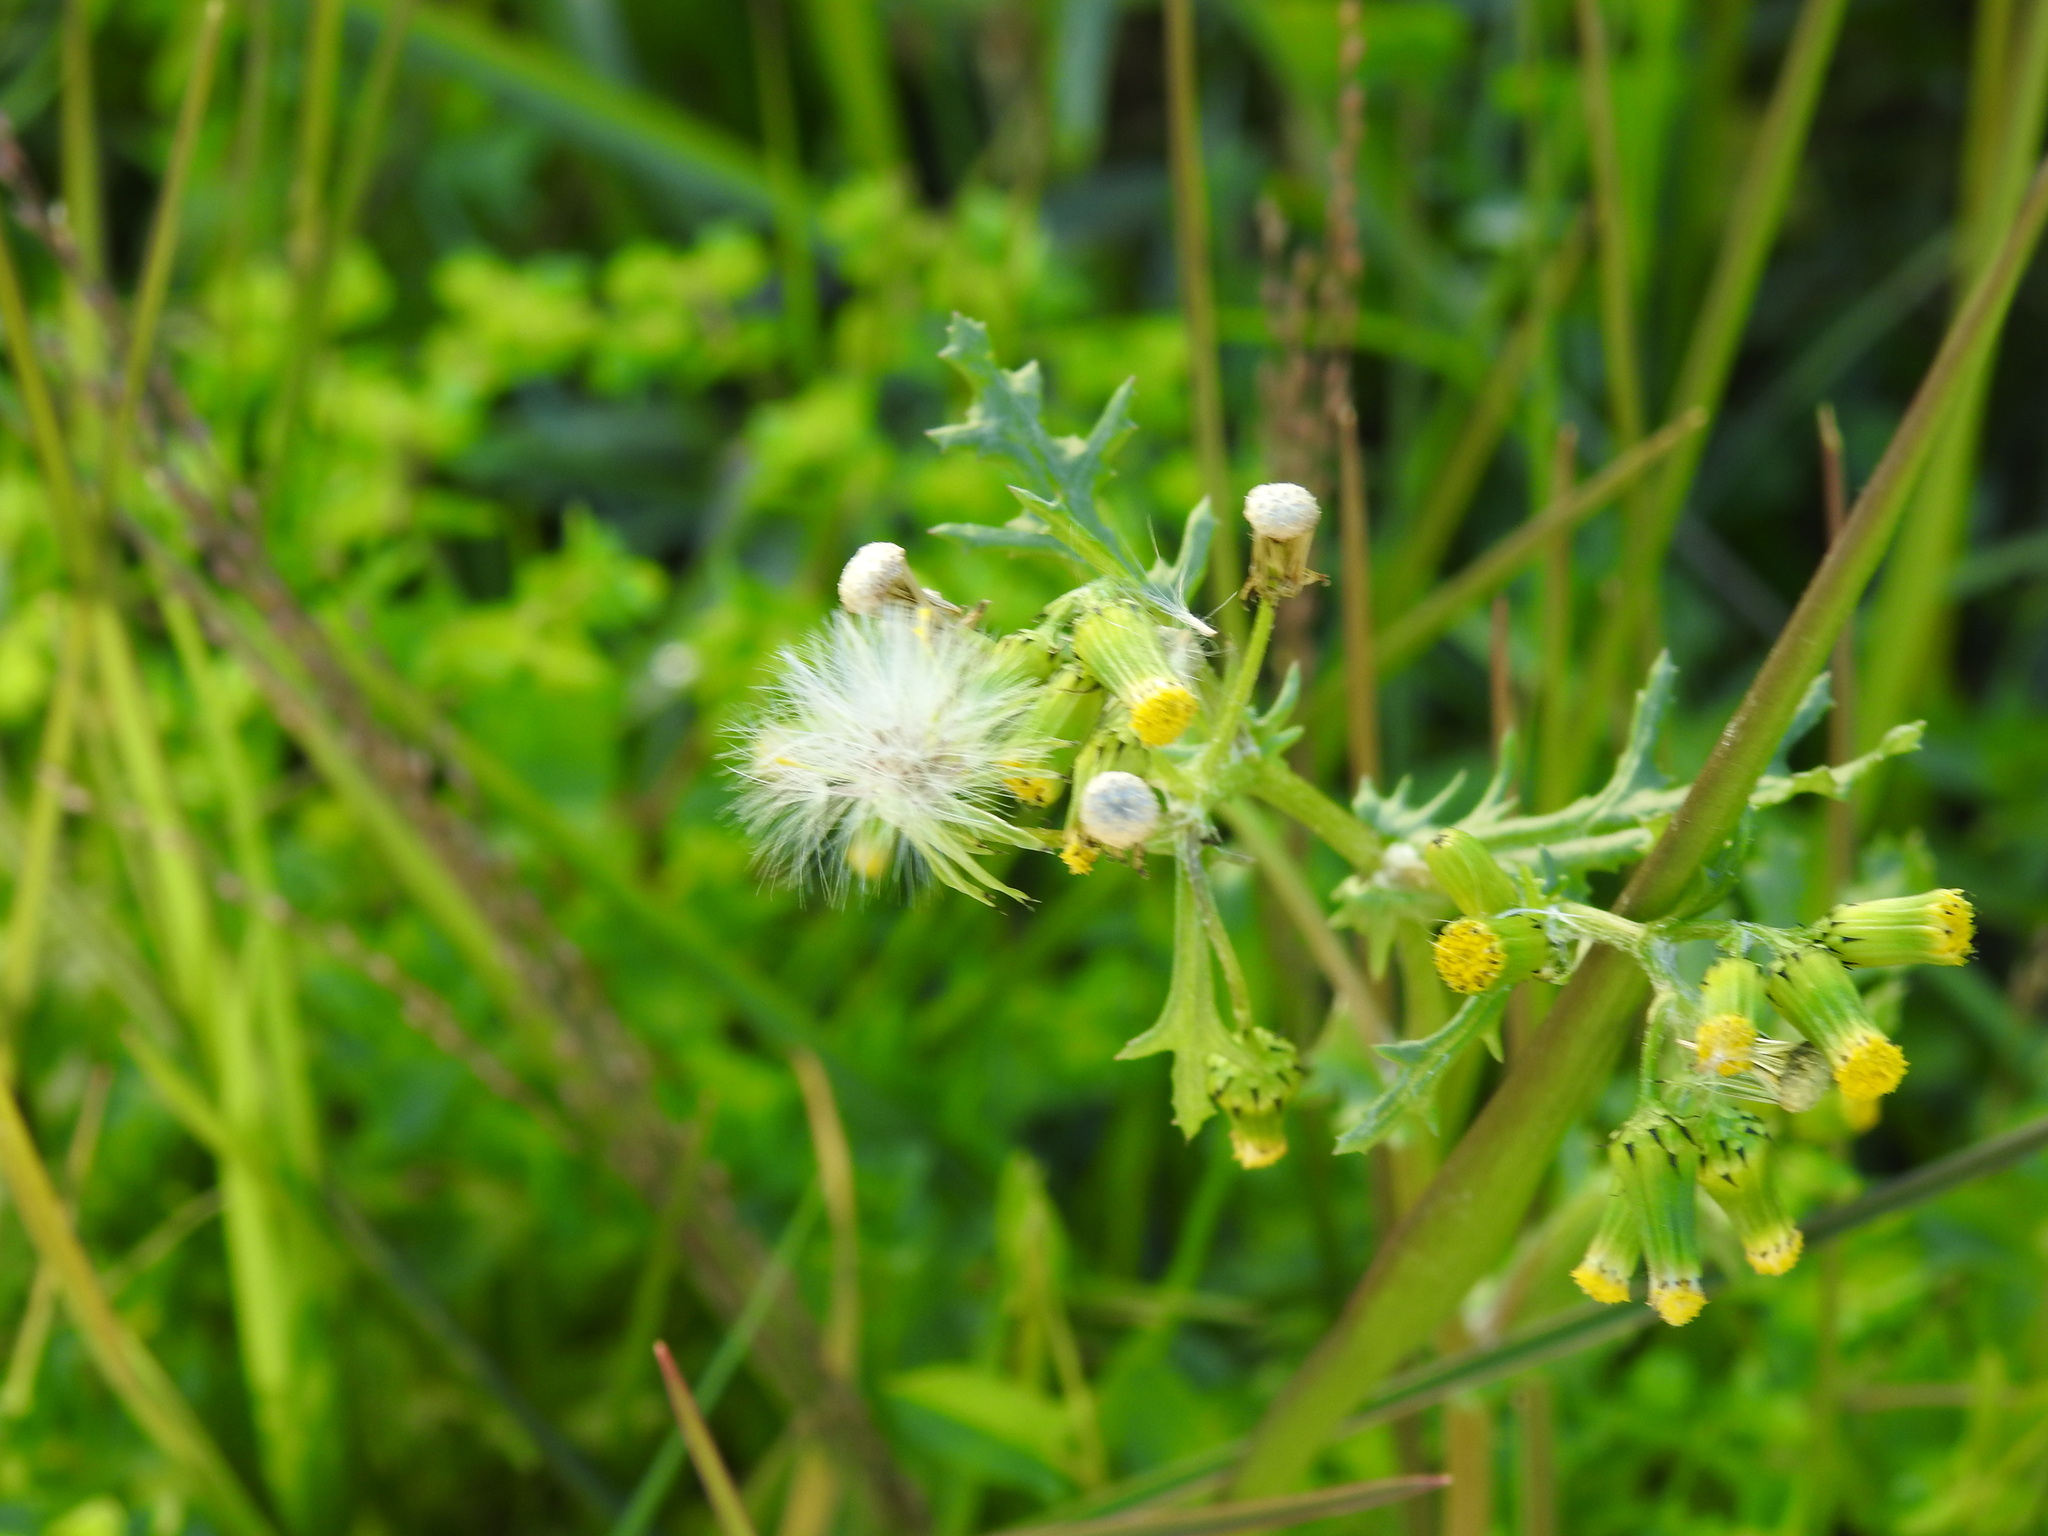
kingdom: Plantae
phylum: Tracheophyta
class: Magnoliopsida
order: Asterales
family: Asteraceae
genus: Senecio
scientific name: Senecio vulgaris
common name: Old-man-in-the-spring
